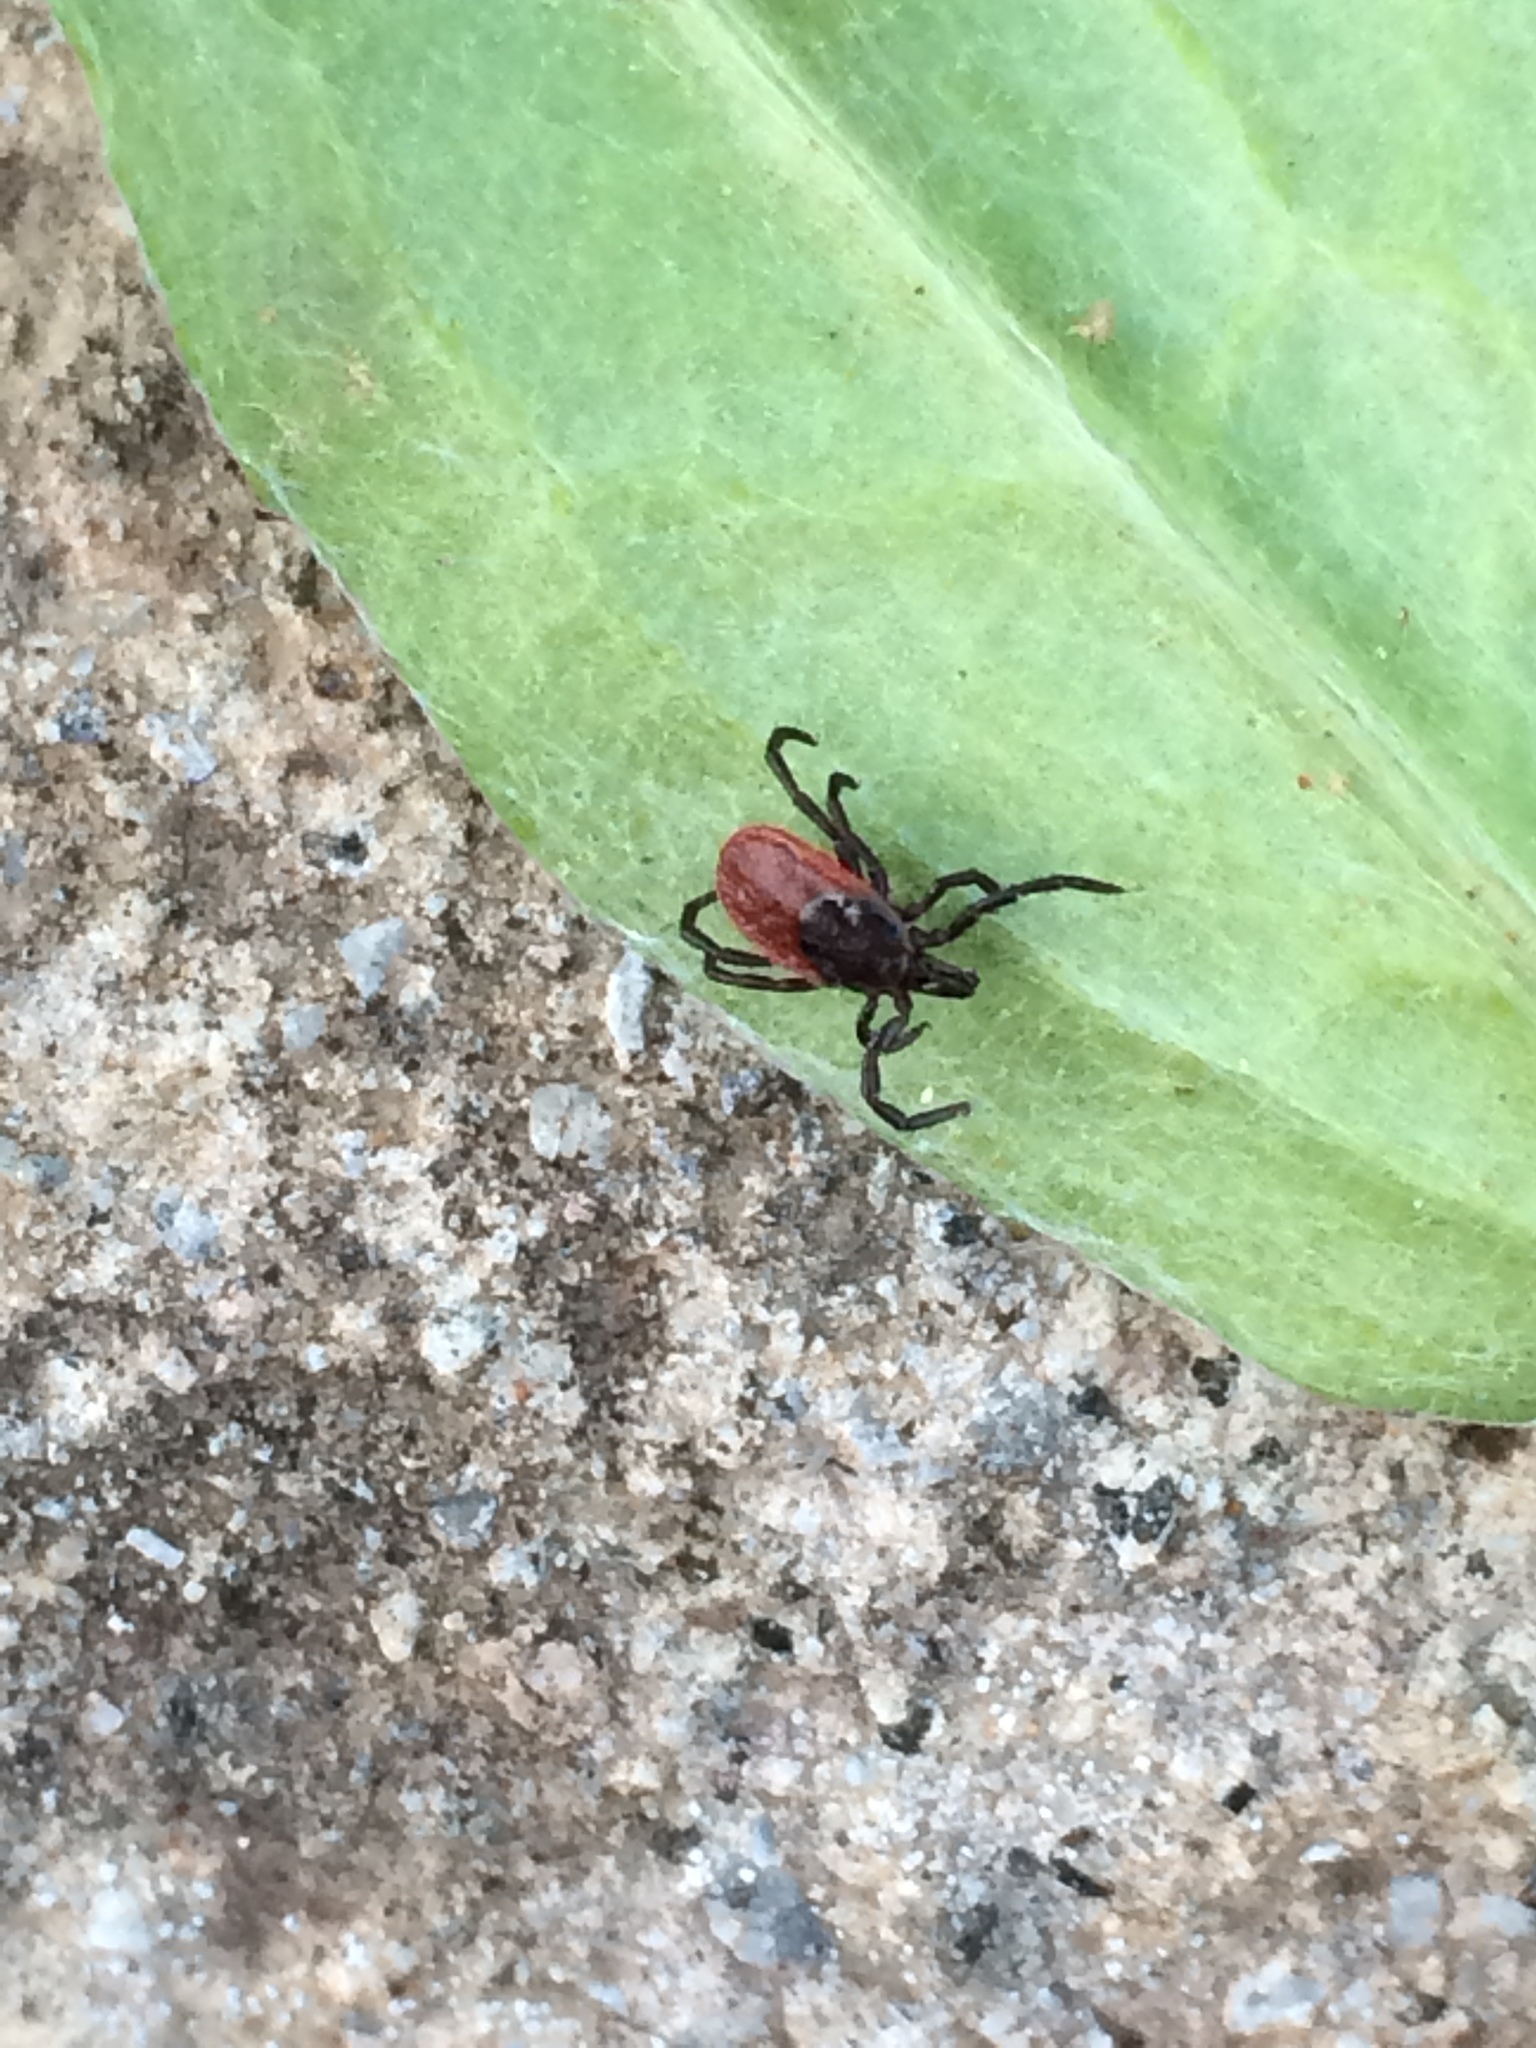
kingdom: Animalia
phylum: Arthropoda
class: Arachnida
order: Ixodida
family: Ixodidae
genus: Ixodes
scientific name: Ixodes pacificus
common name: California black-legged tick
